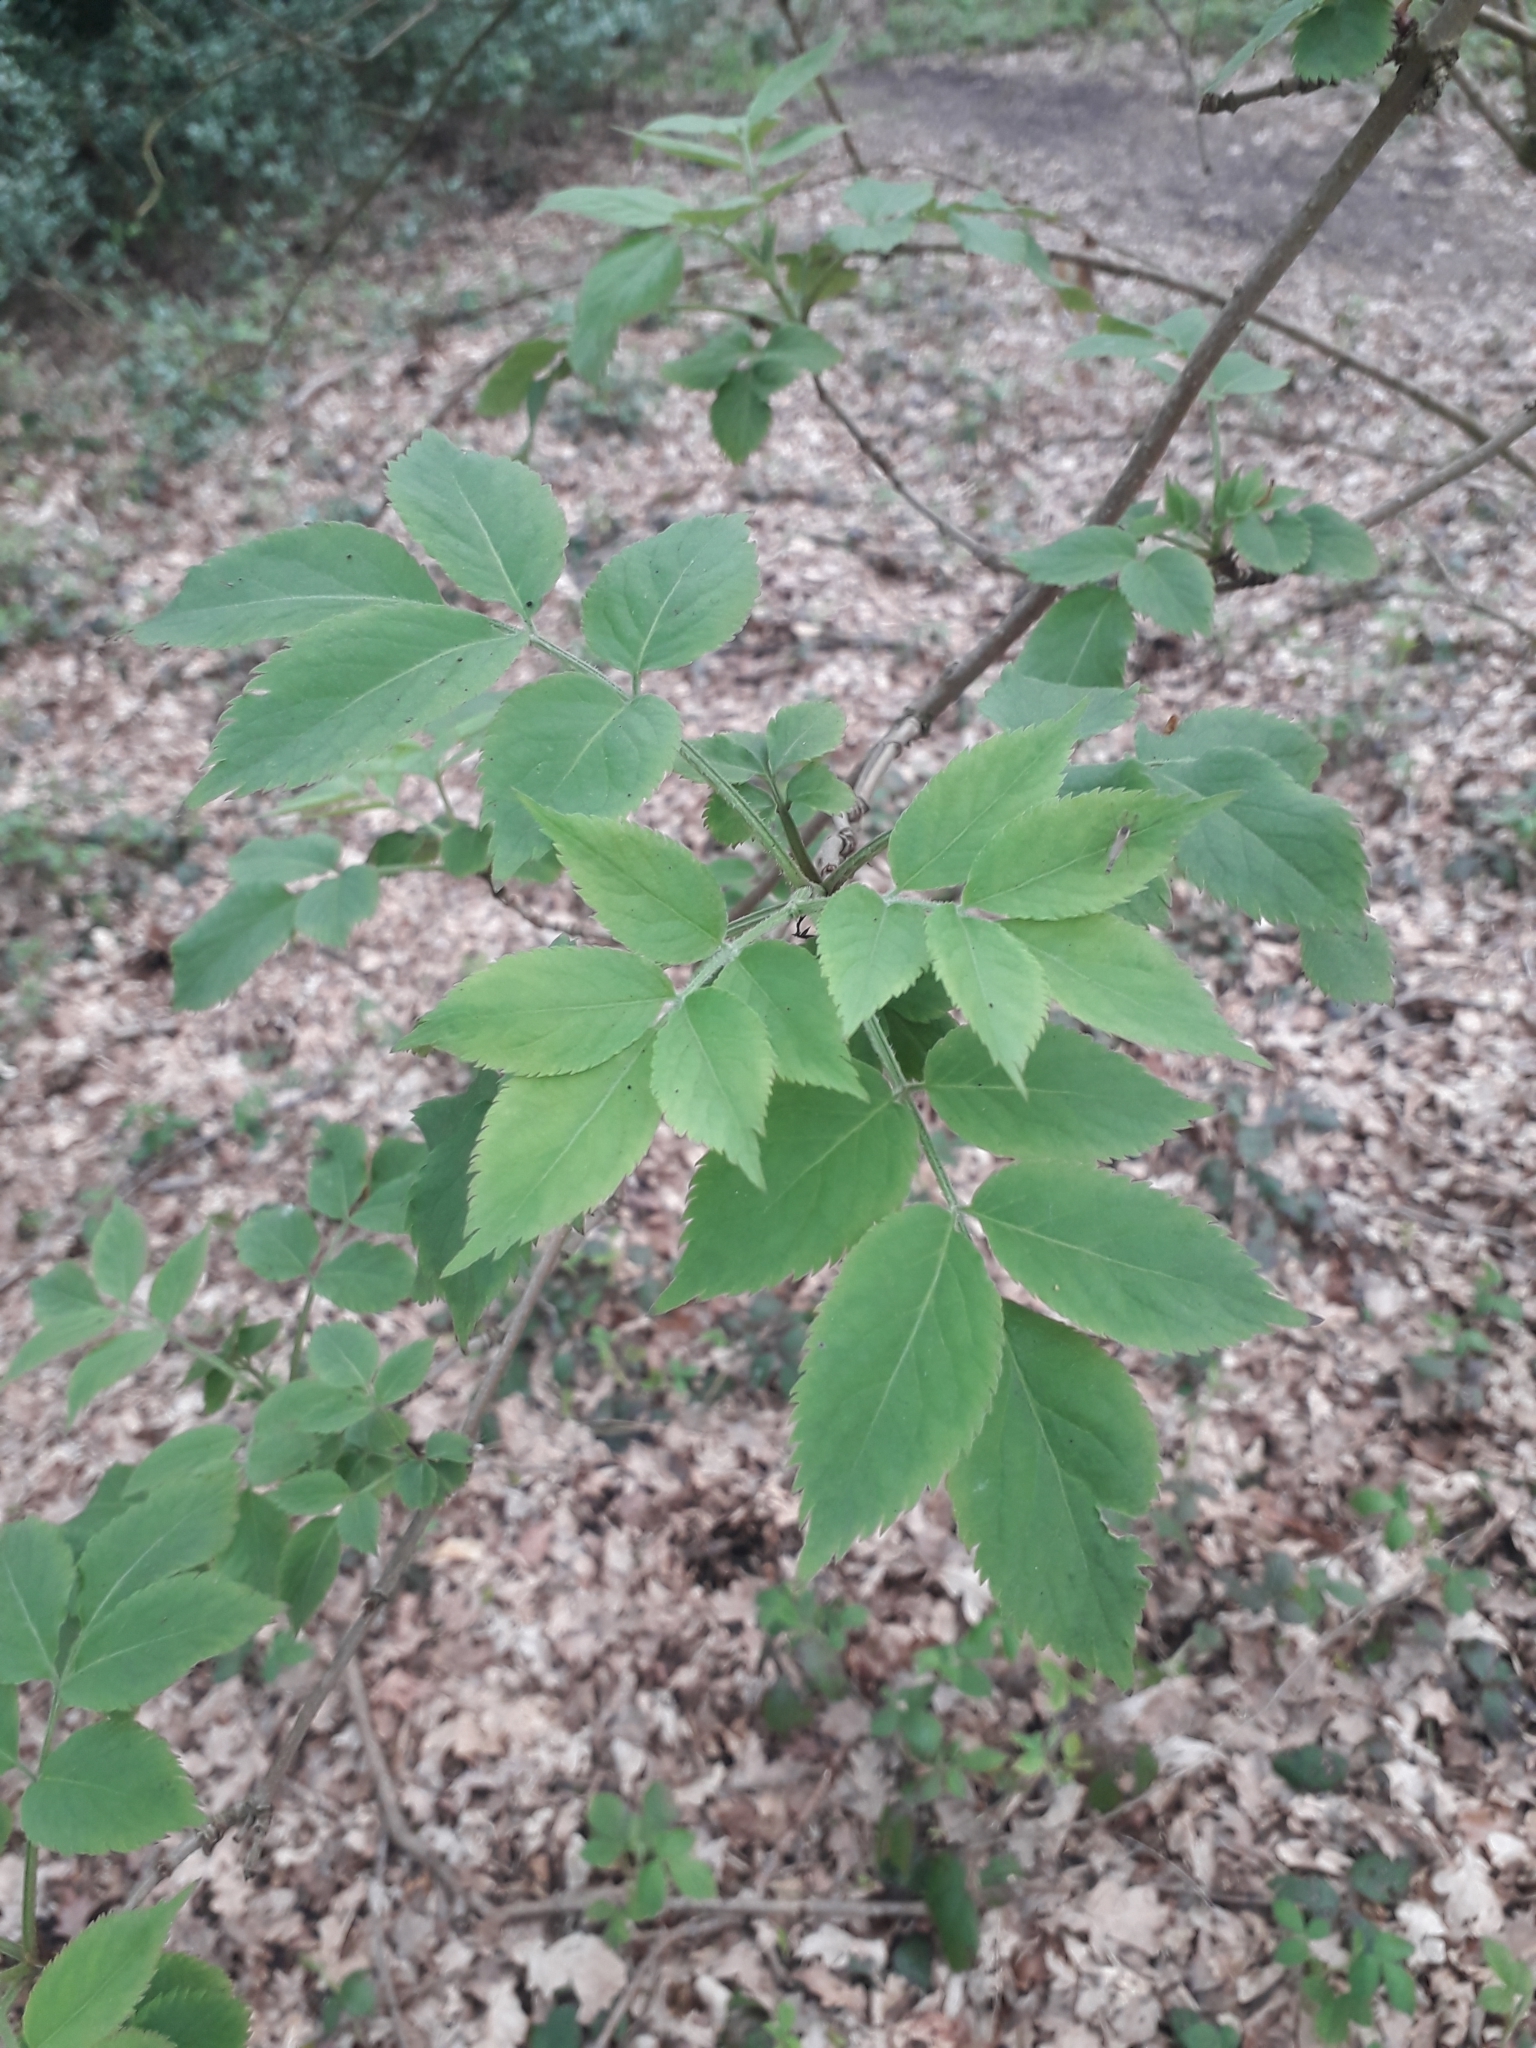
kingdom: Plantae
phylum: Tracheophyta
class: Magnoliopsida
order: Dipsacales
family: Viburnaceae
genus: Sambucus
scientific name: Sambucus nigra
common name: Elder
